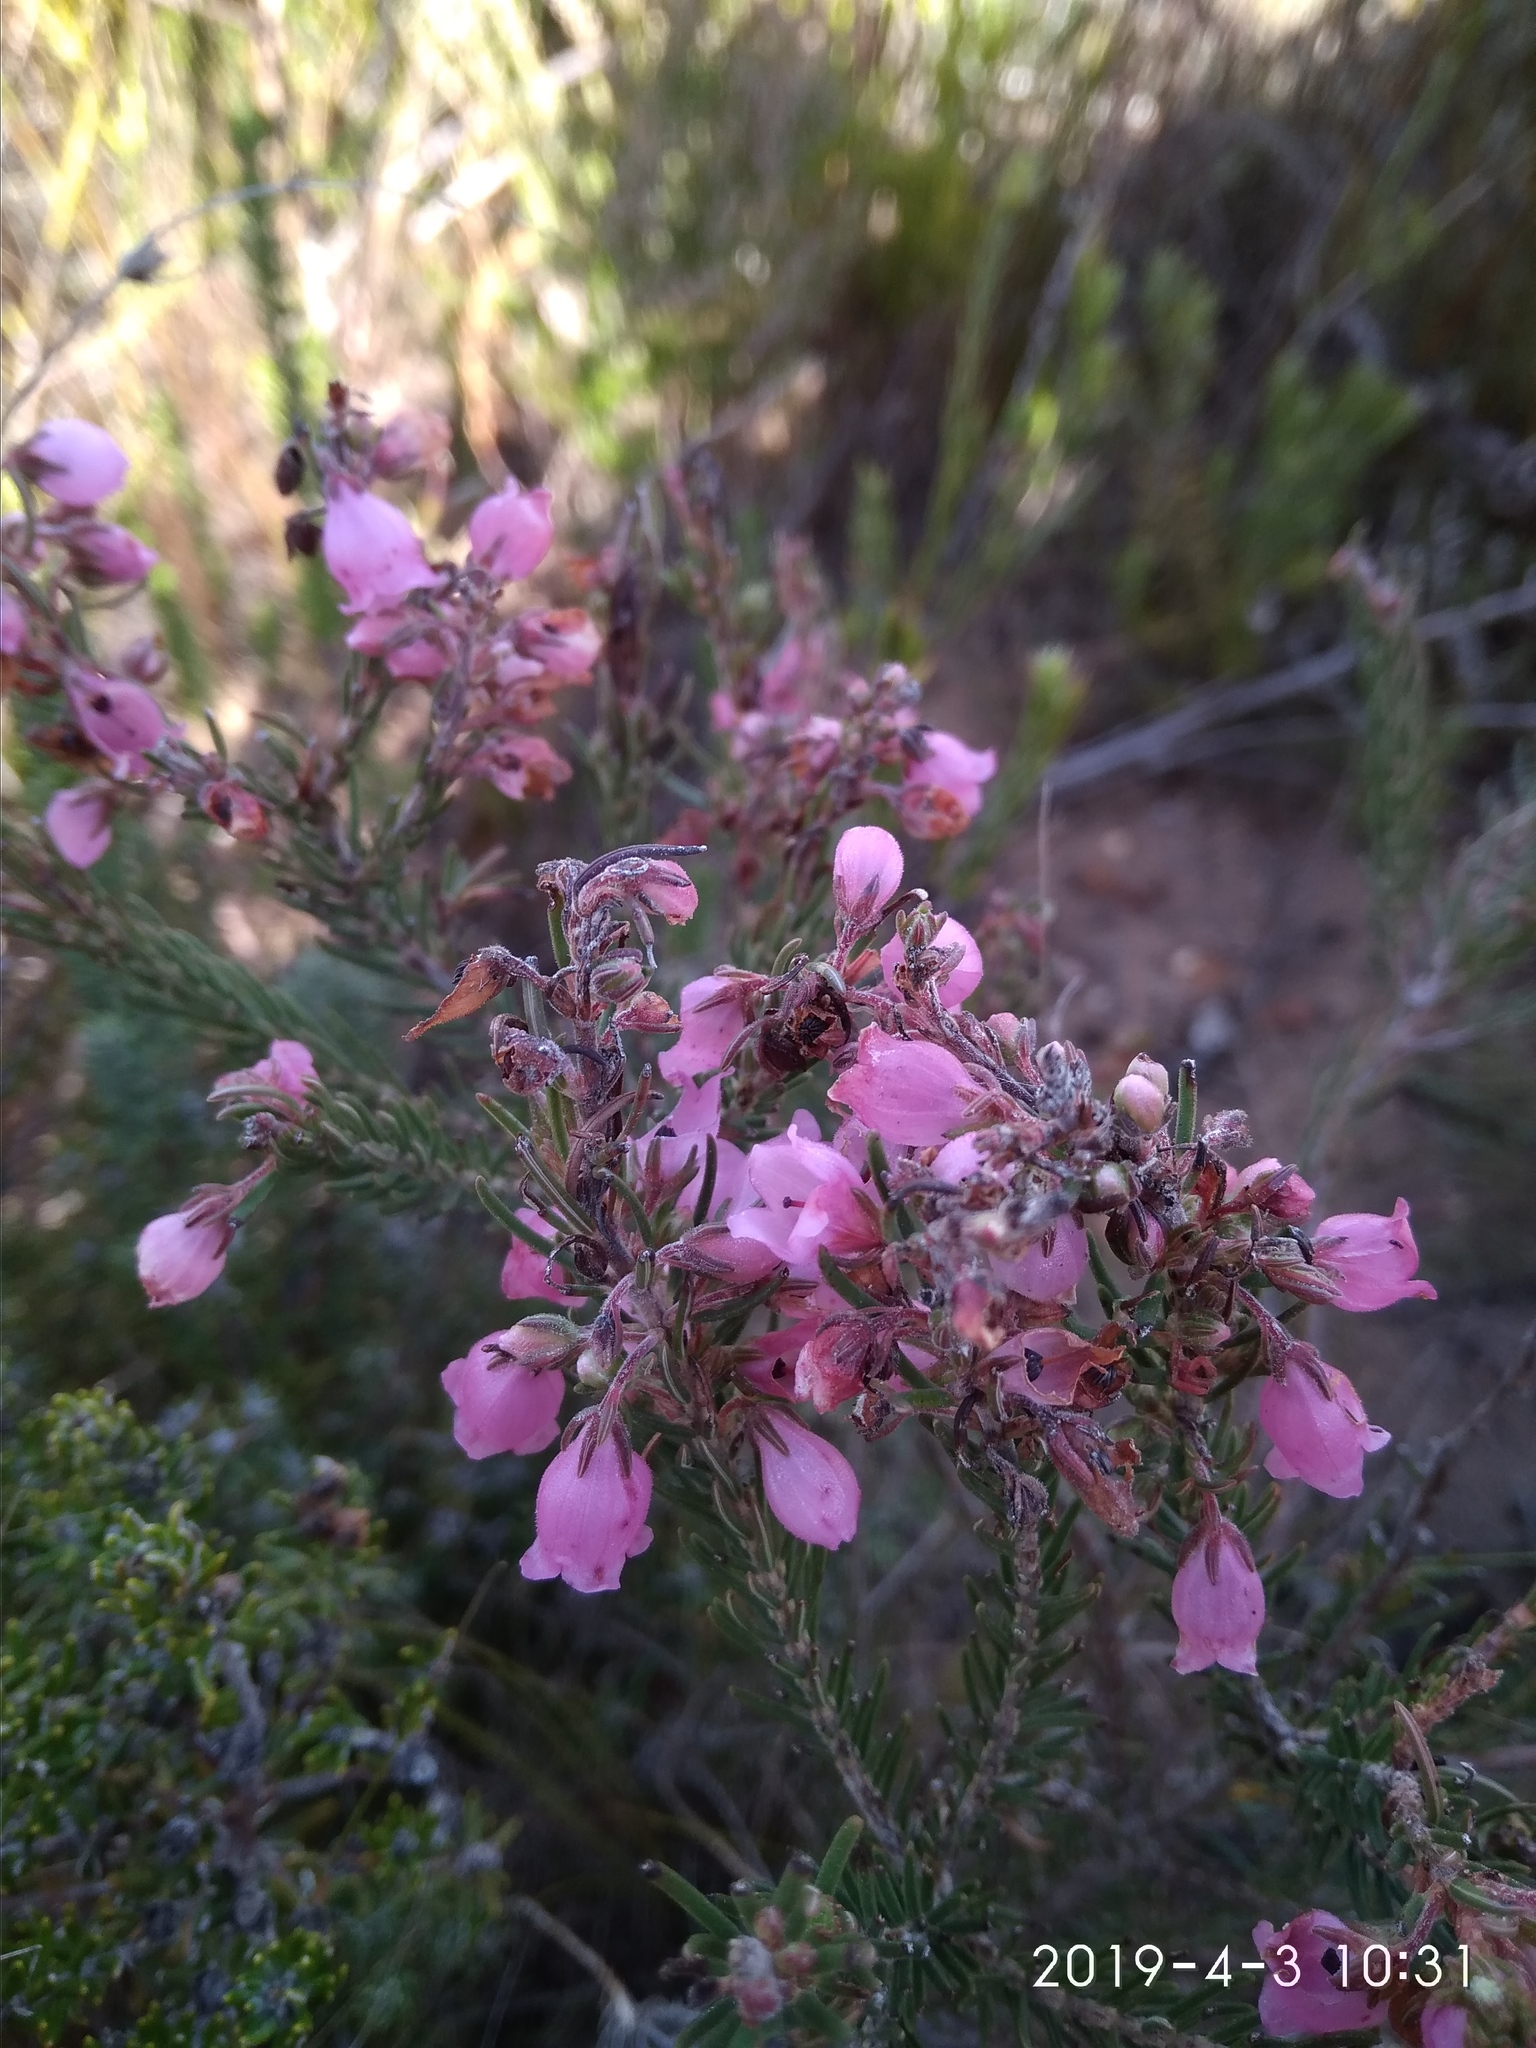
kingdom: Plantae
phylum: Tracheophyta
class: Magnoliopsida
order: Ericales
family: Ericaceae
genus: Erica
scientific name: Erica viscaria
